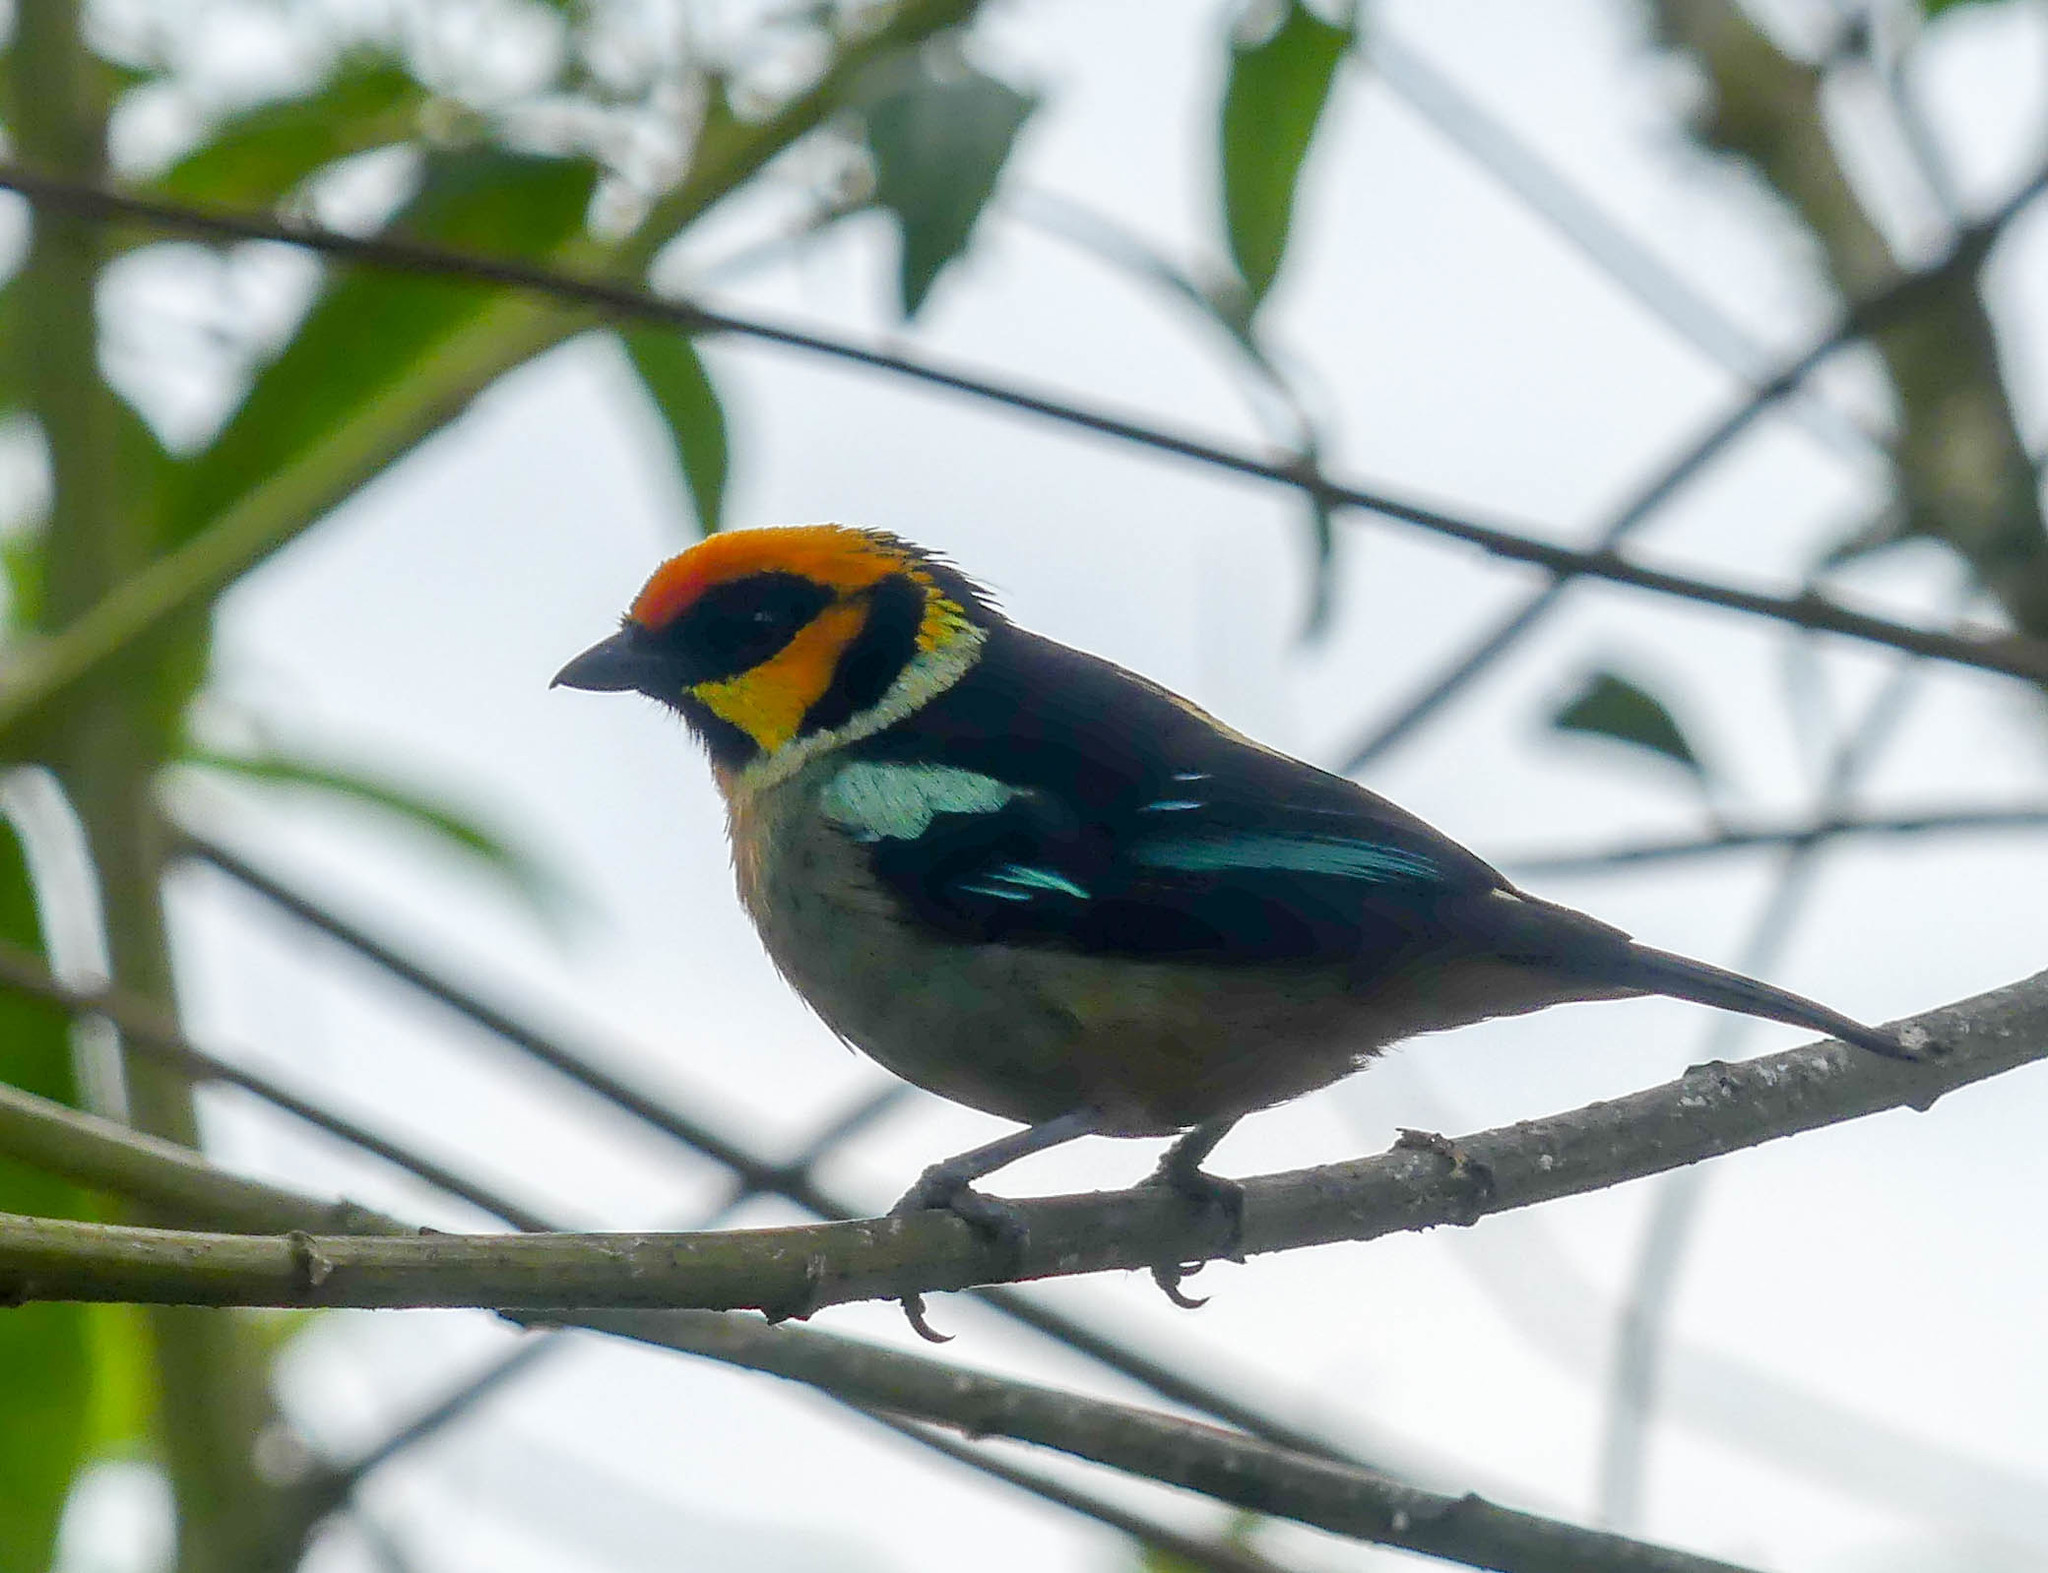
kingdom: Animalia
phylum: Chordata
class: Aves
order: Passeriformes
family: Thraupidae
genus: Tangara
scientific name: Tangara parzudakii
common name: Flame-faced tanager
